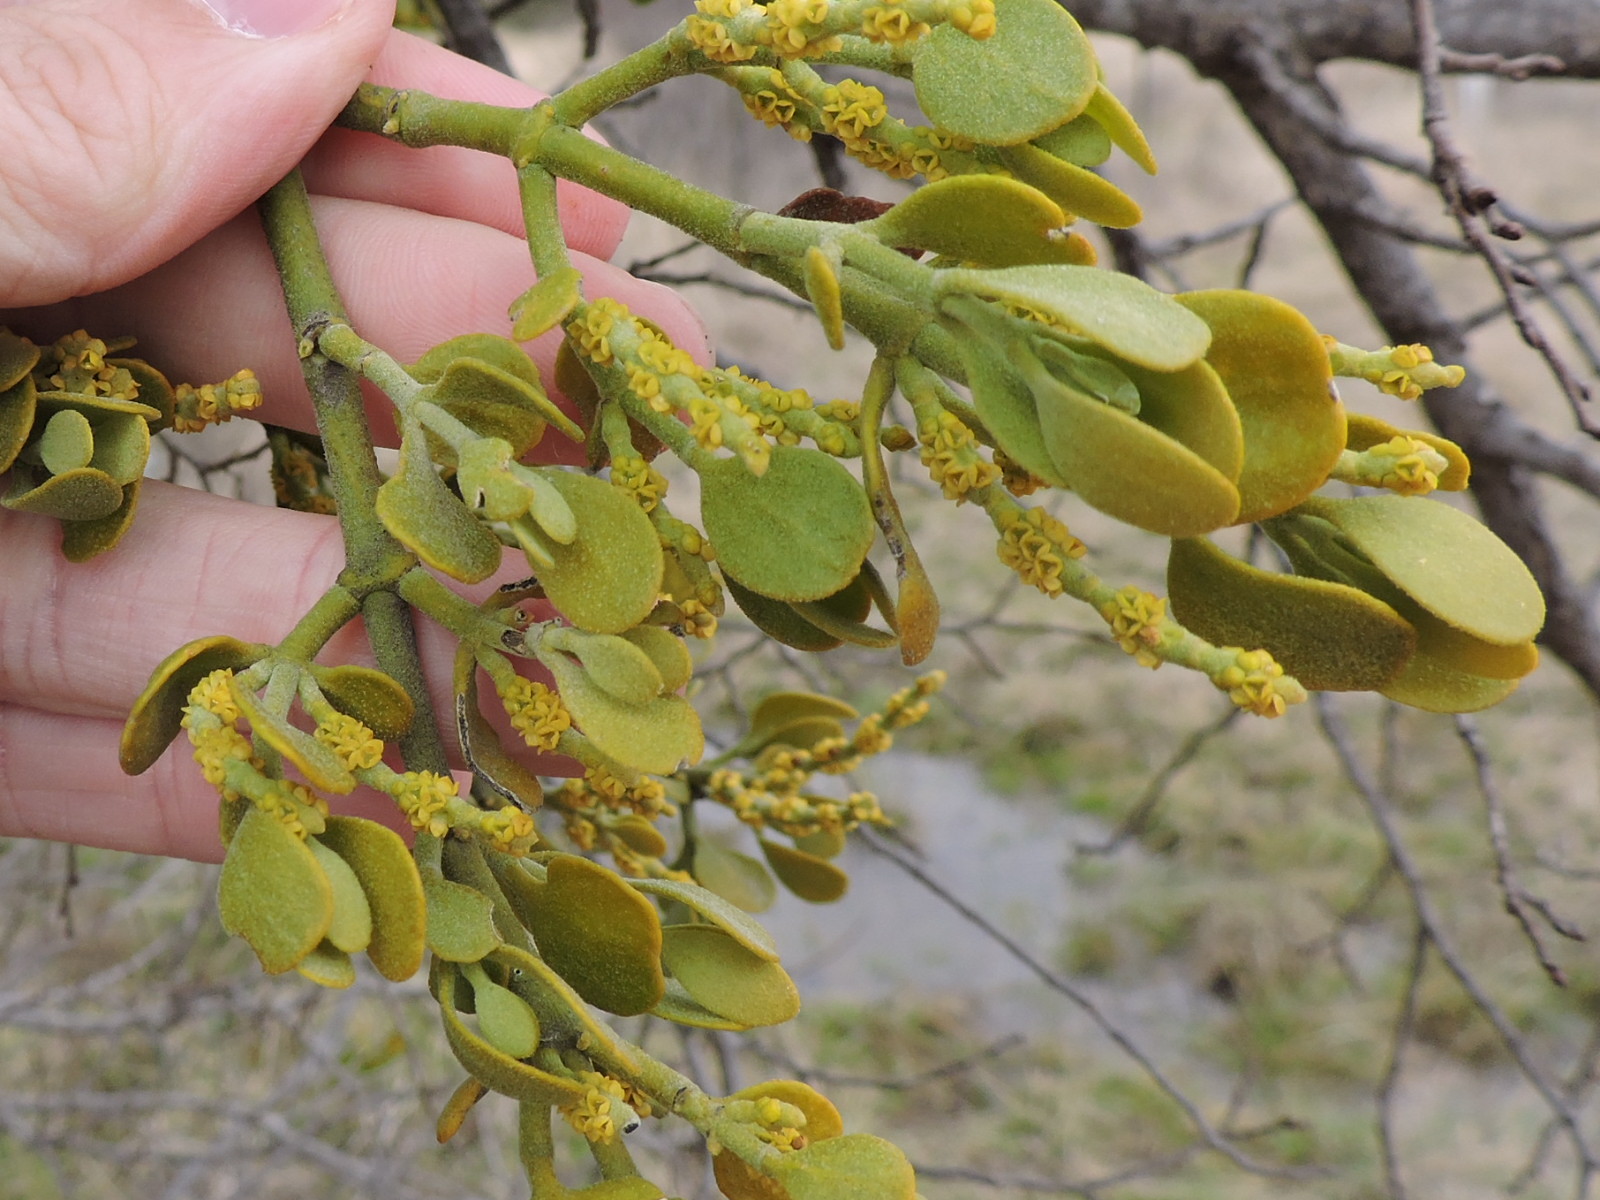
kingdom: Plantae
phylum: Tracheophyta
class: Magnoliopsida
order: Santalales
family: Viscaceae
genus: Phoradendron
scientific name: Phoradendron leucarpum
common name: Pacific mistletoe
